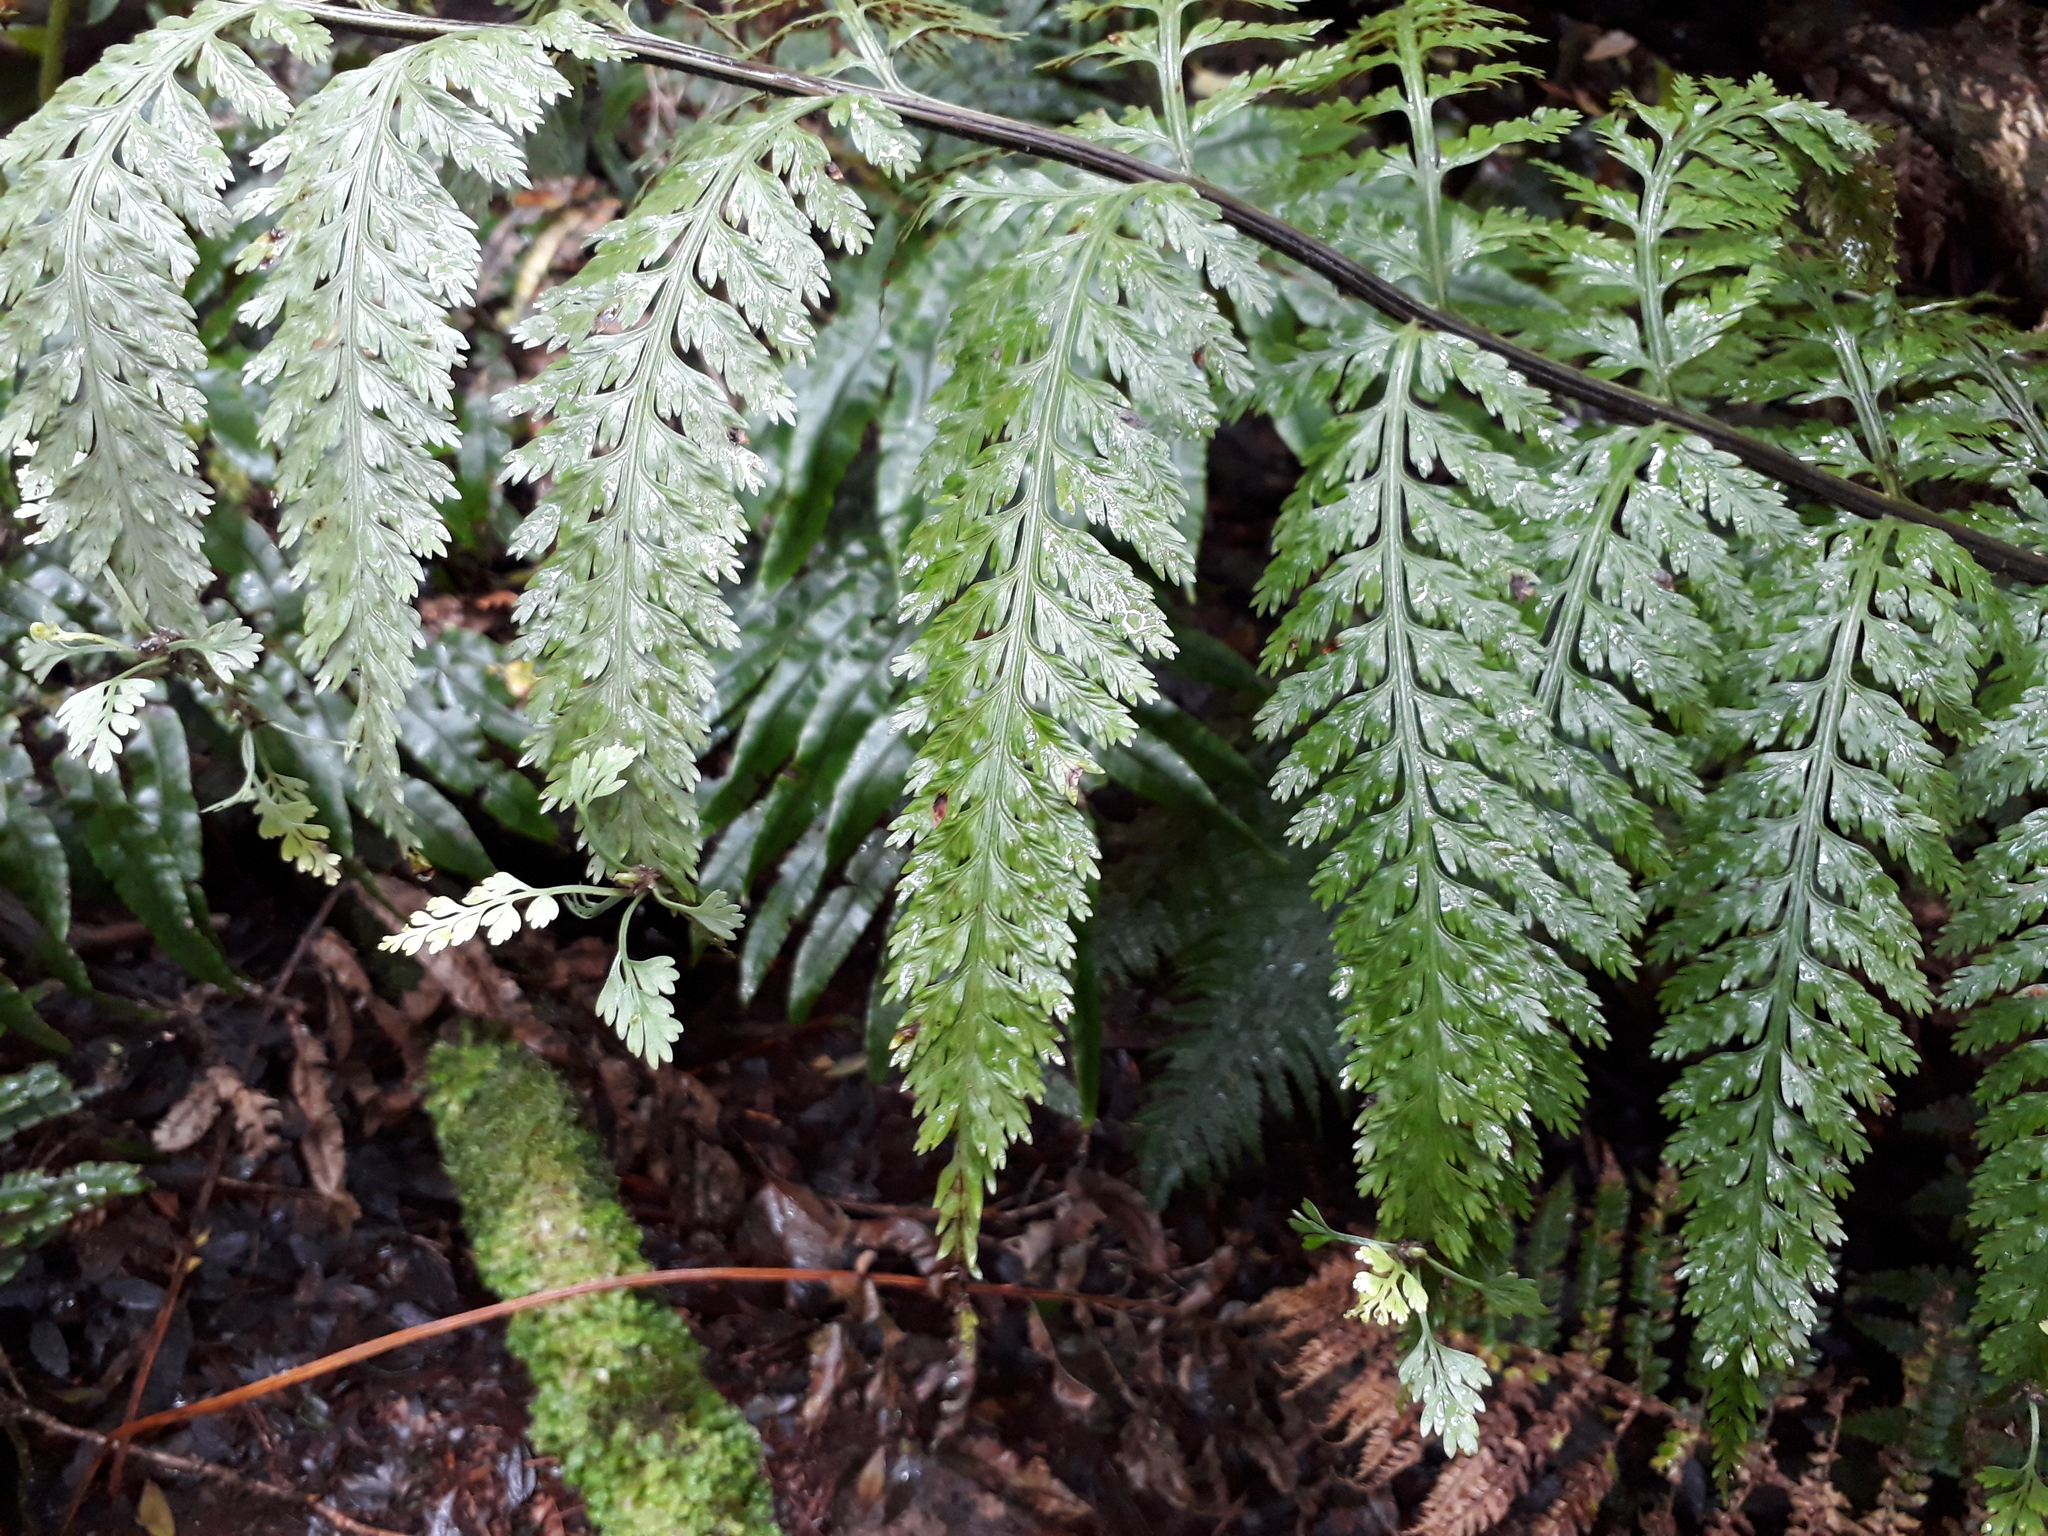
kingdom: Plantae
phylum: Tracheophyta
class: Polypodiopsida
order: Polypodiales
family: Aspleniaceae
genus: Asplenium
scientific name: Asplenium bulbiferum
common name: Mother fern
